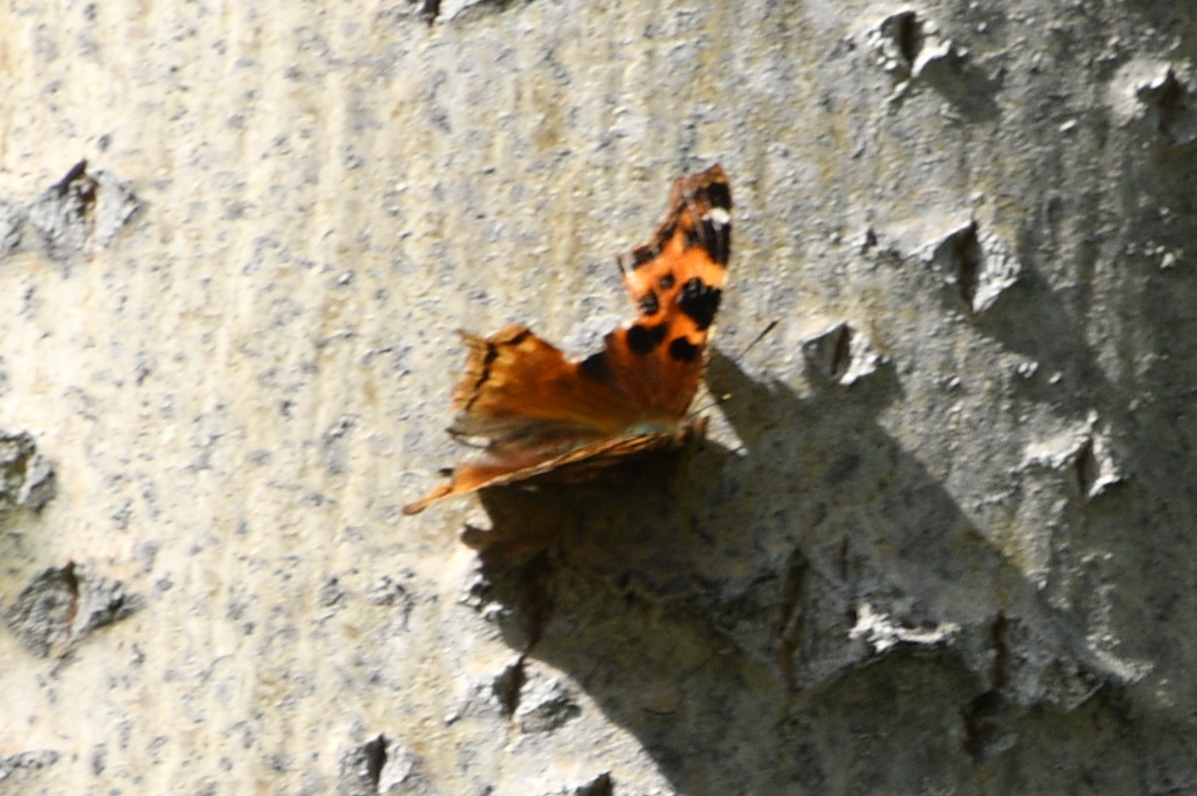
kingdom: Animalia
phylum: Arthropoda
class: Insecta
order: Lepidoptera
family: Nymphalidae
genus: Polygonia
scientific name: Polygonia vaualbum
